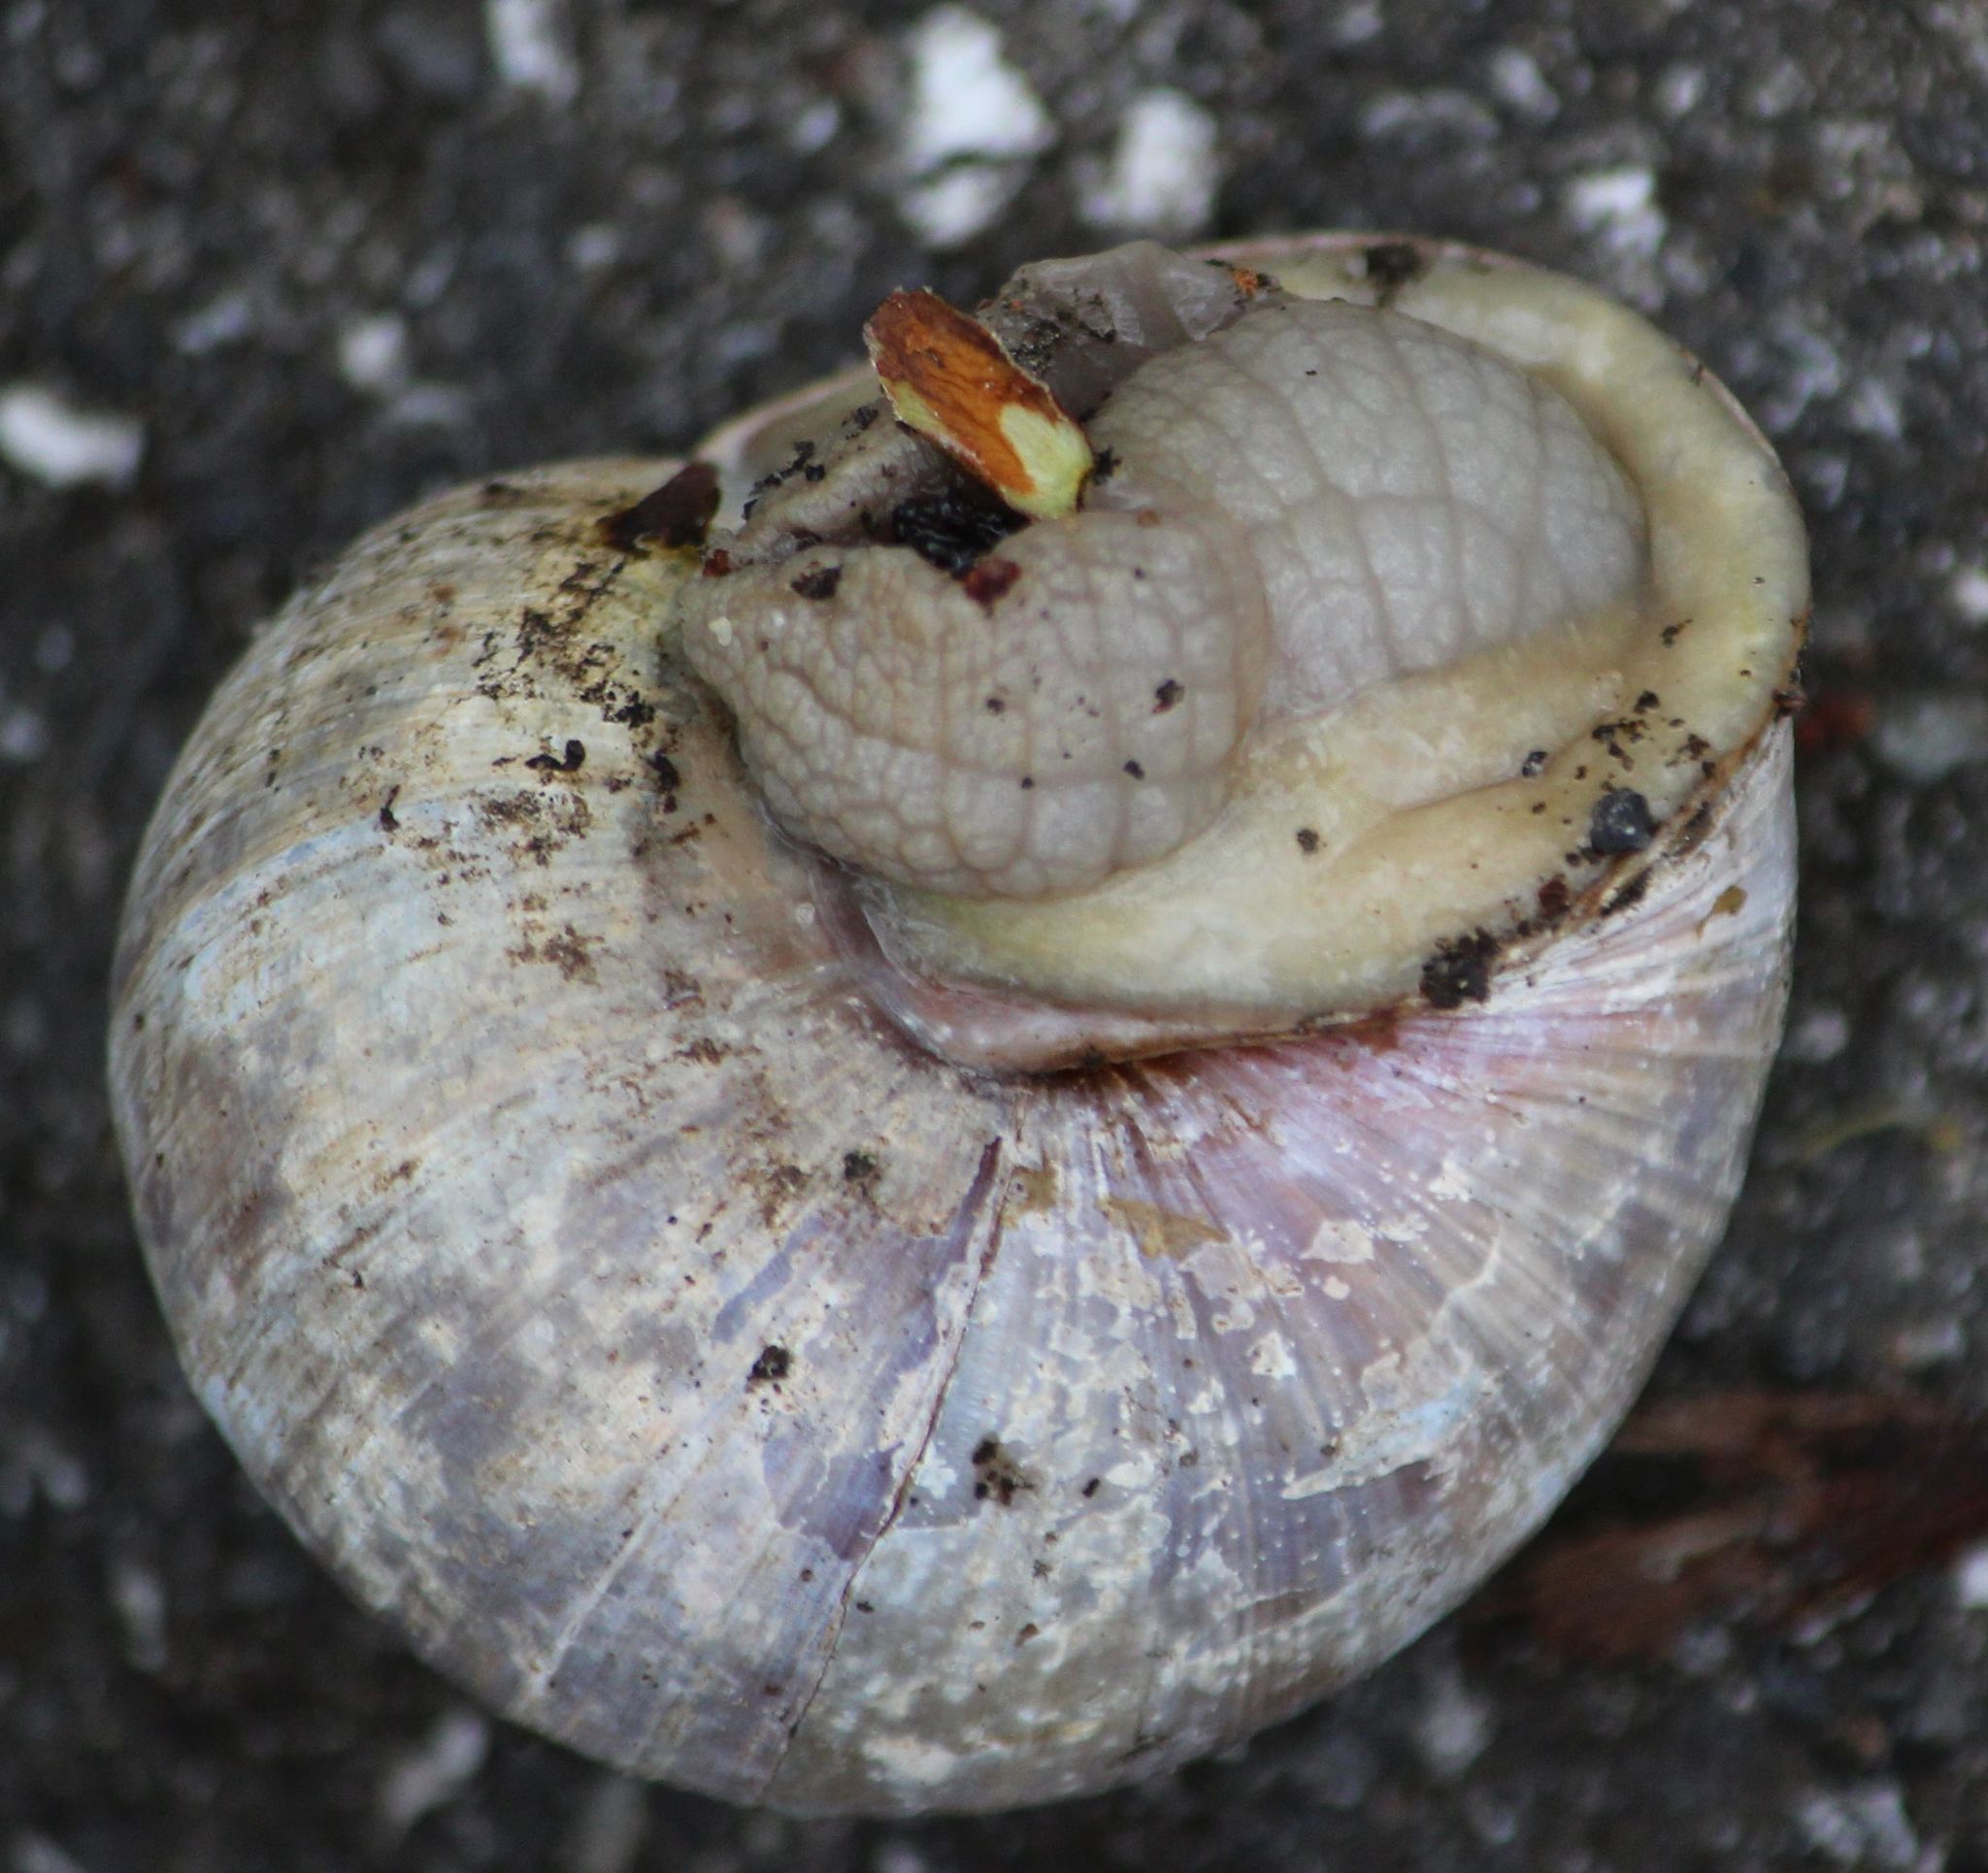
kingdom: Animalia
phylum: Mollusca
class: Gastropoda
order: Stylommatophora
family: Helicidae
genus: Helix
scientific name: Helix pomatia
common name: Roman snail
